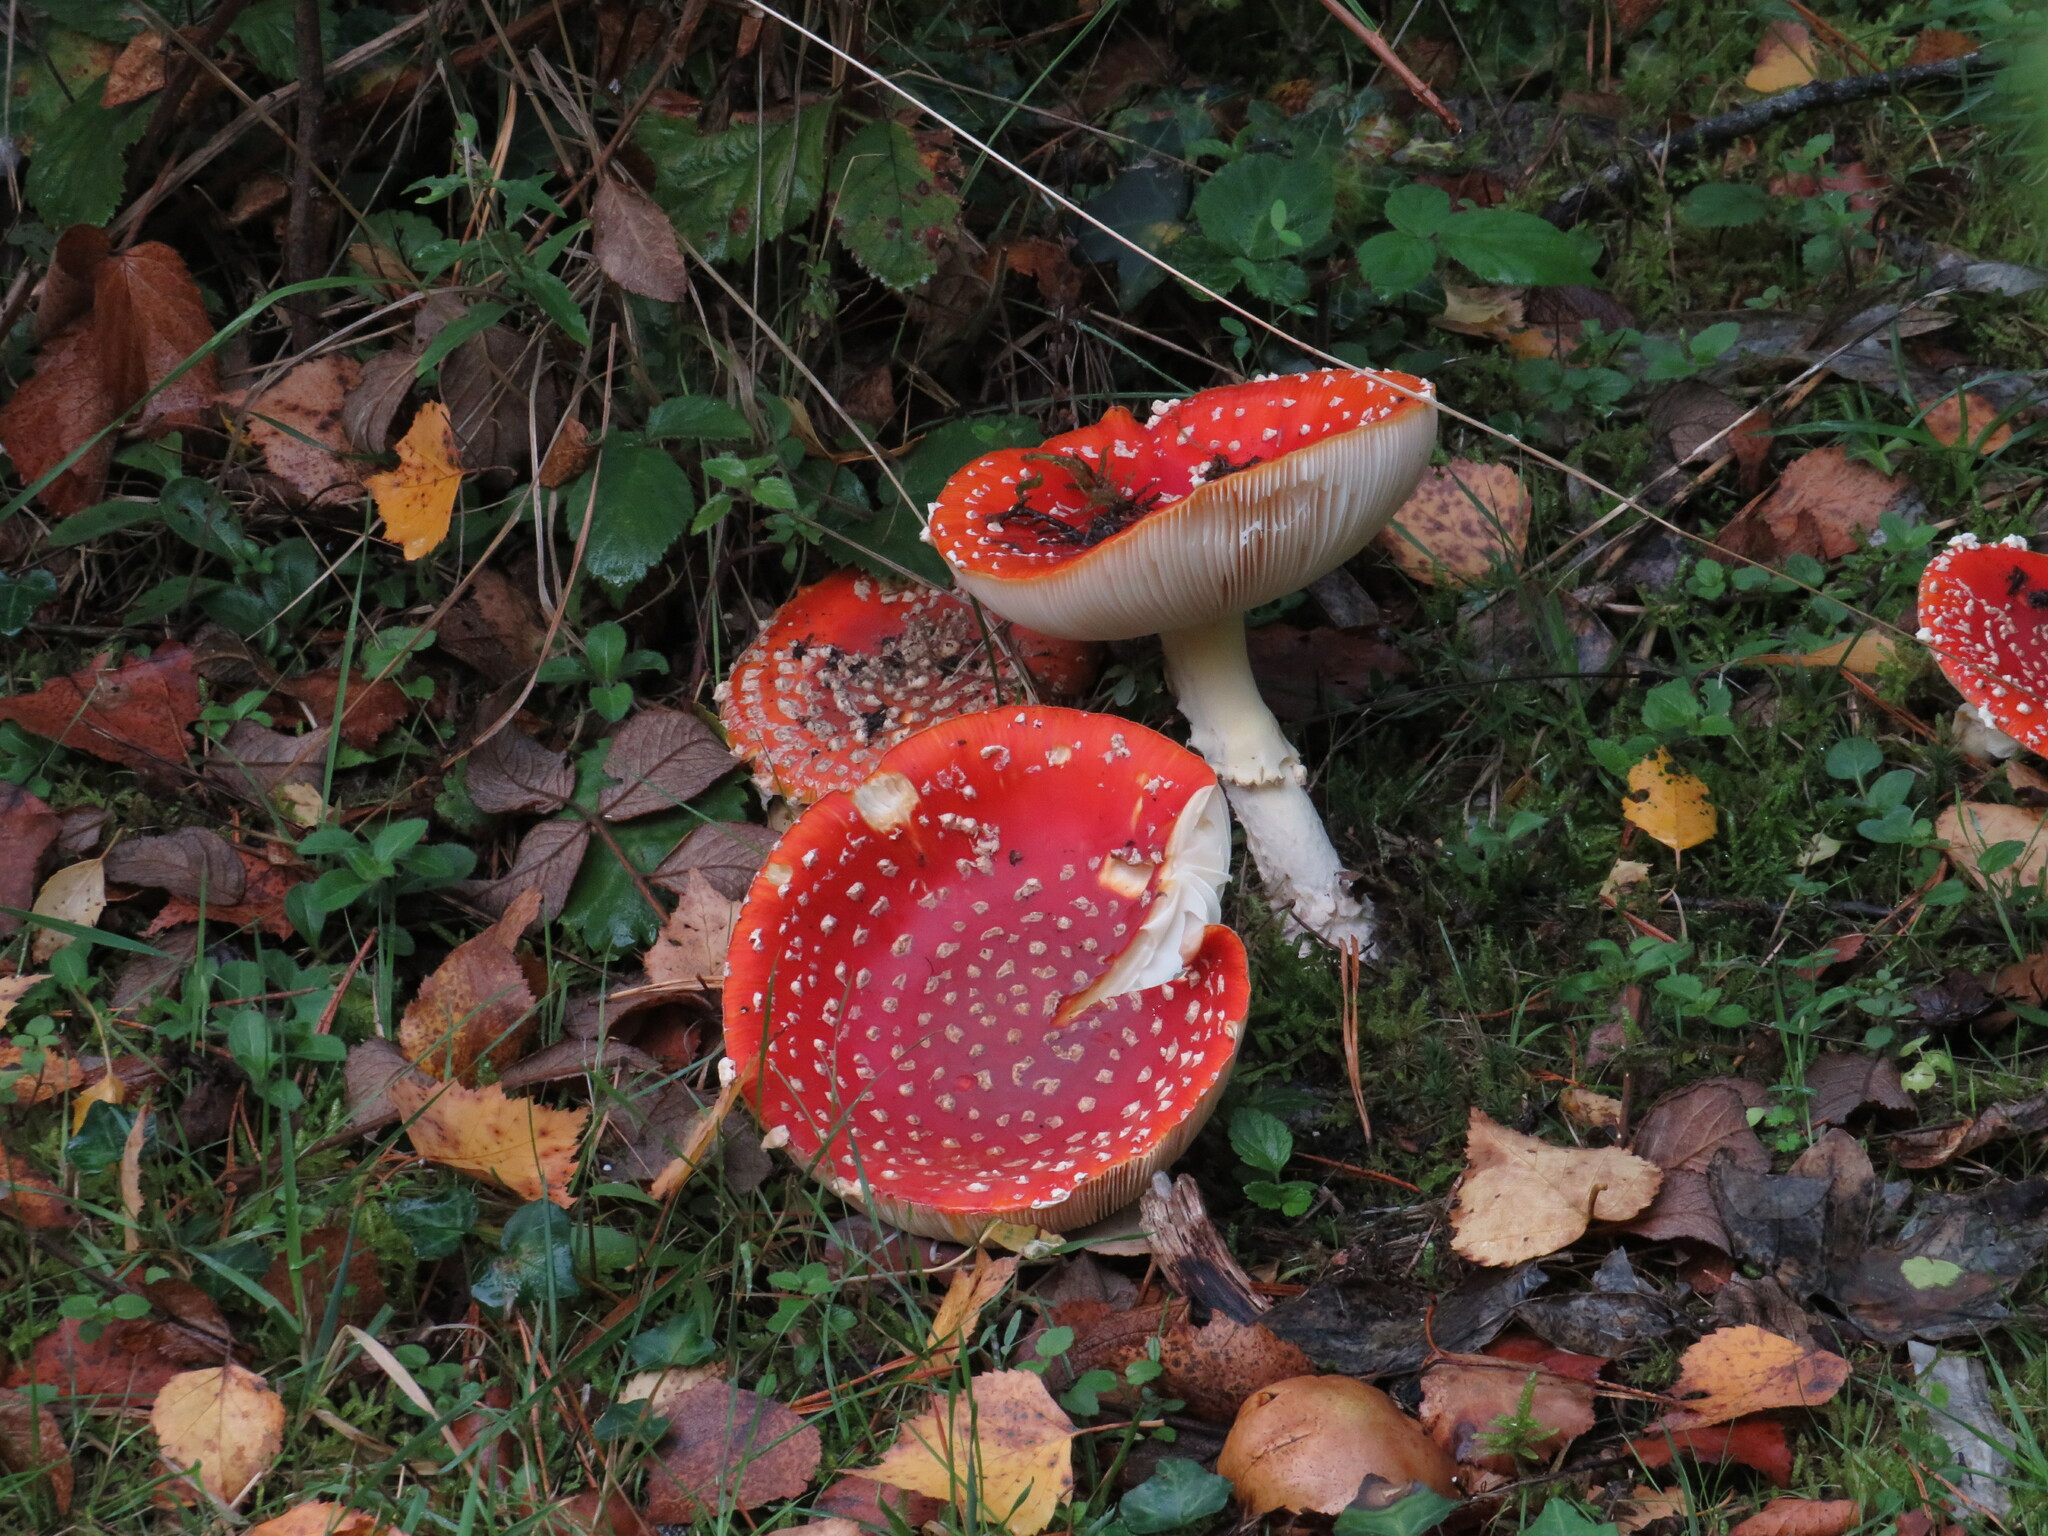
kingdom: Fungi
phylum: Basidiomycota
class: Agaricomycetes
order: Agaricales
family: Amanitaceae
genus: Amanita
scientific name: Amanita muscaria
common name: Fly agaric
